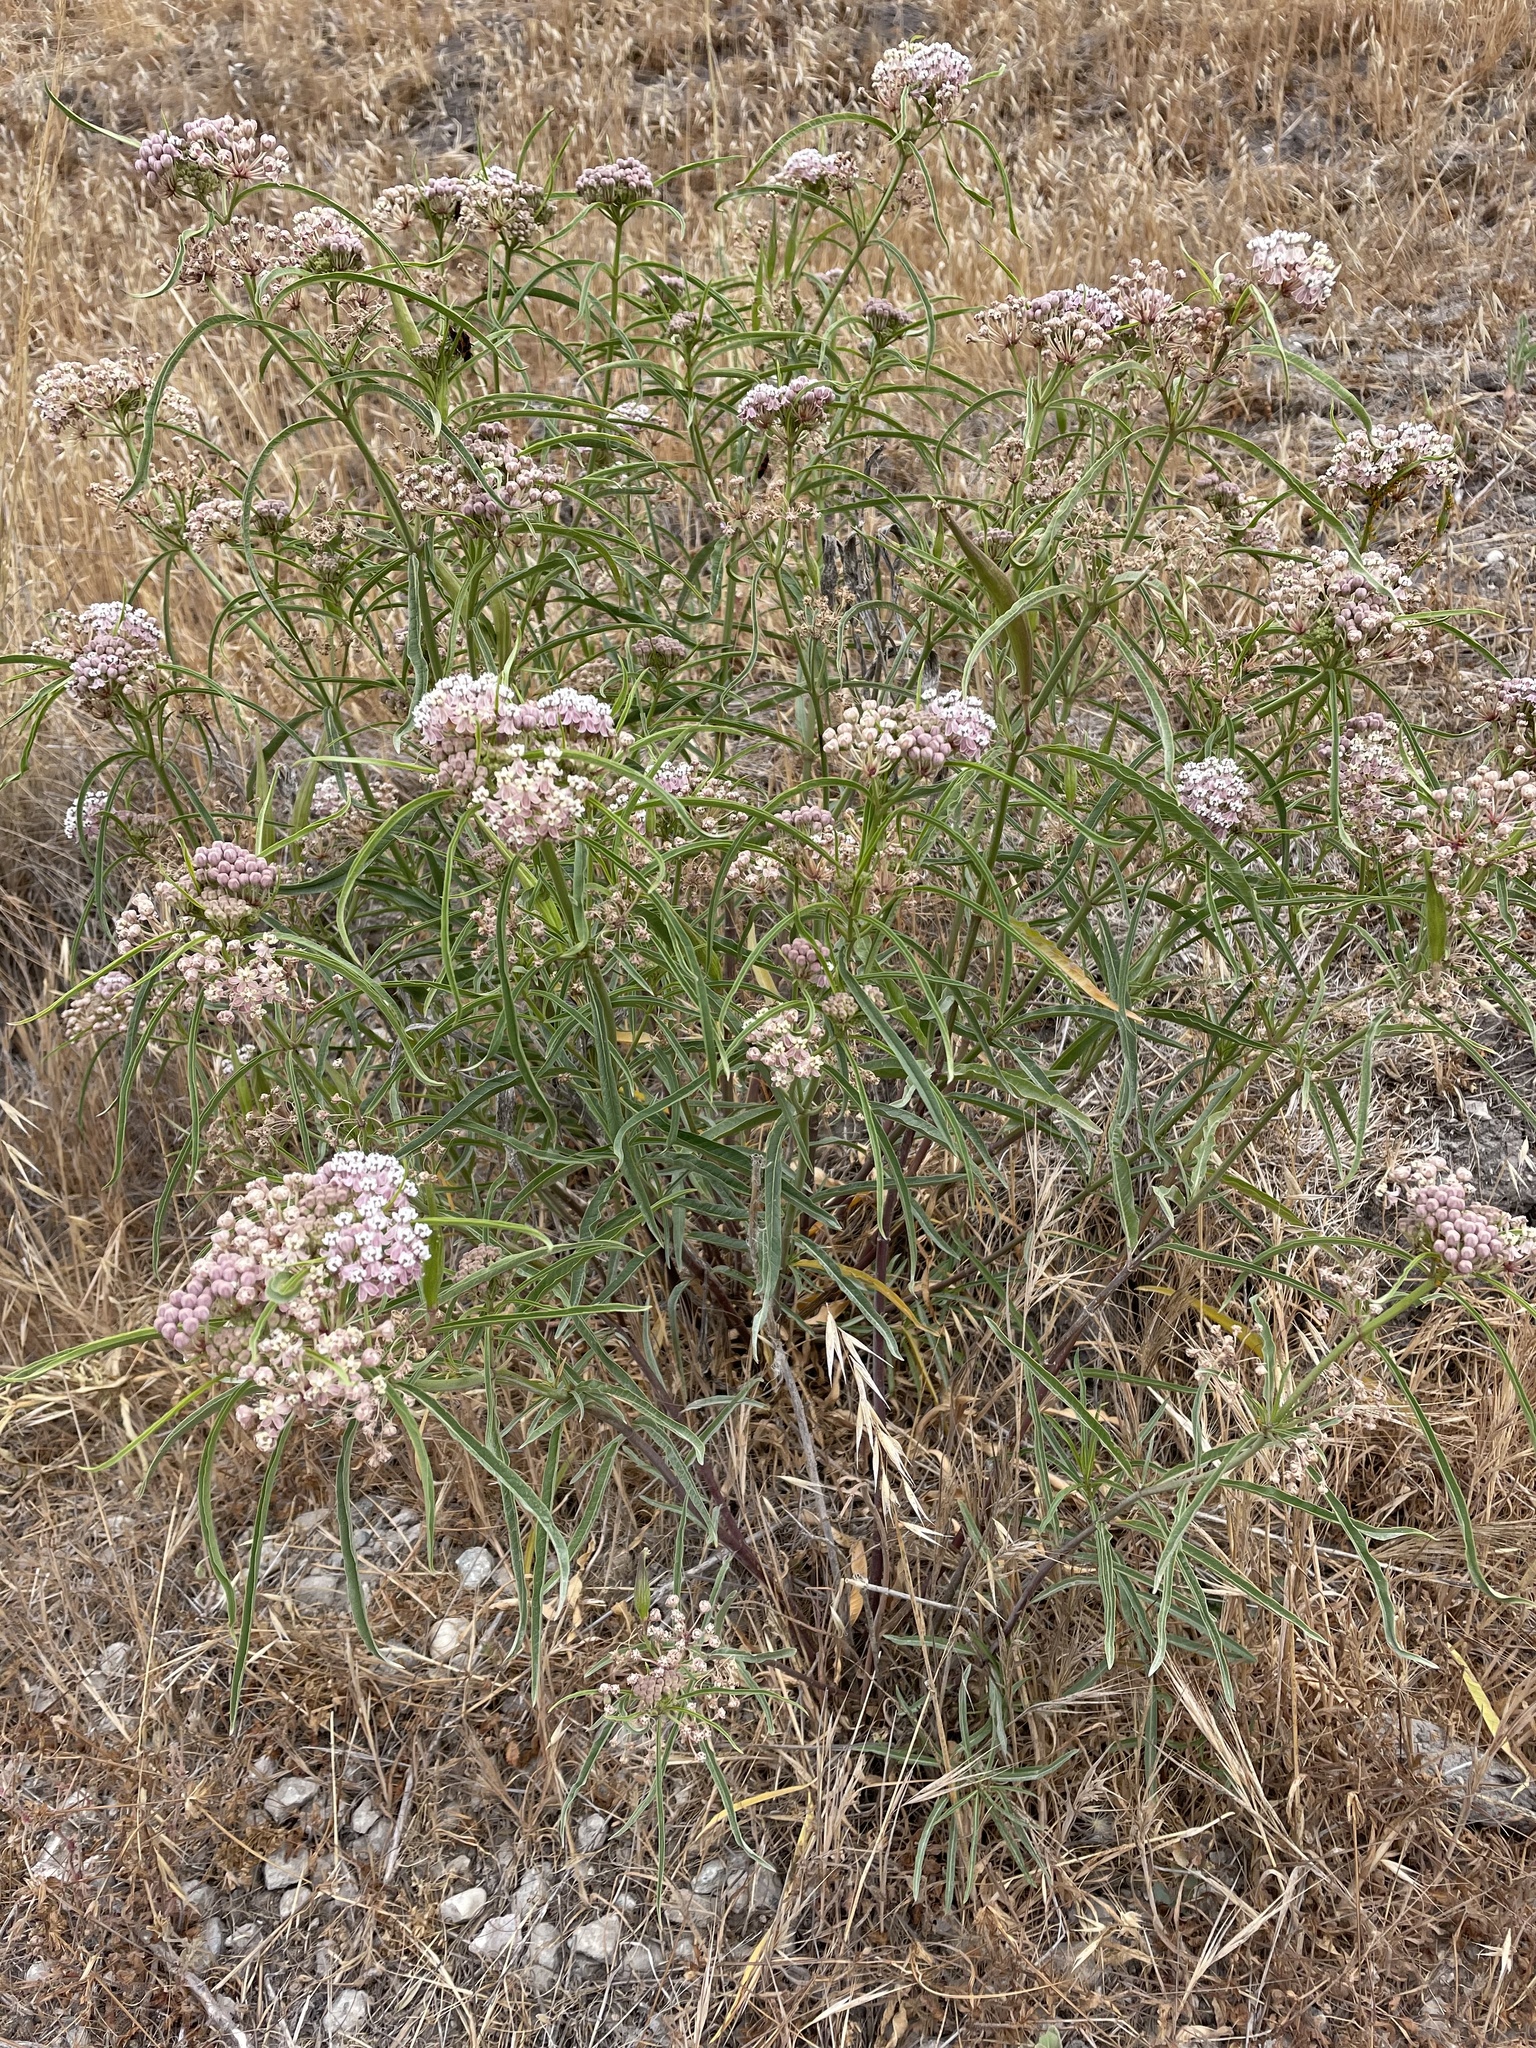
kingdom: Plantae
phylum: Tracheophyta
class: Magnoliopsida
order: Gentianales
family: Apocynaceae
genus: Asclepias
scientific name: Asclepias fascicularis
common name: Mexican milkweed
